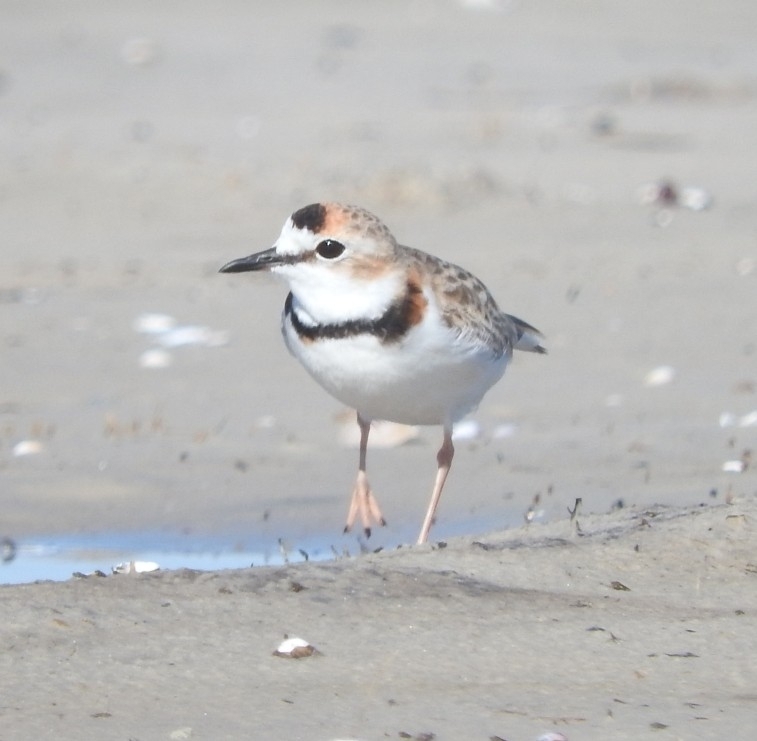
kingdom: Animalia
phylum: Chordata
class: Aves
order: Charadriiformes
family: Charadriidae
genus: Anarhynchus
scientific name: Anarhynchus
